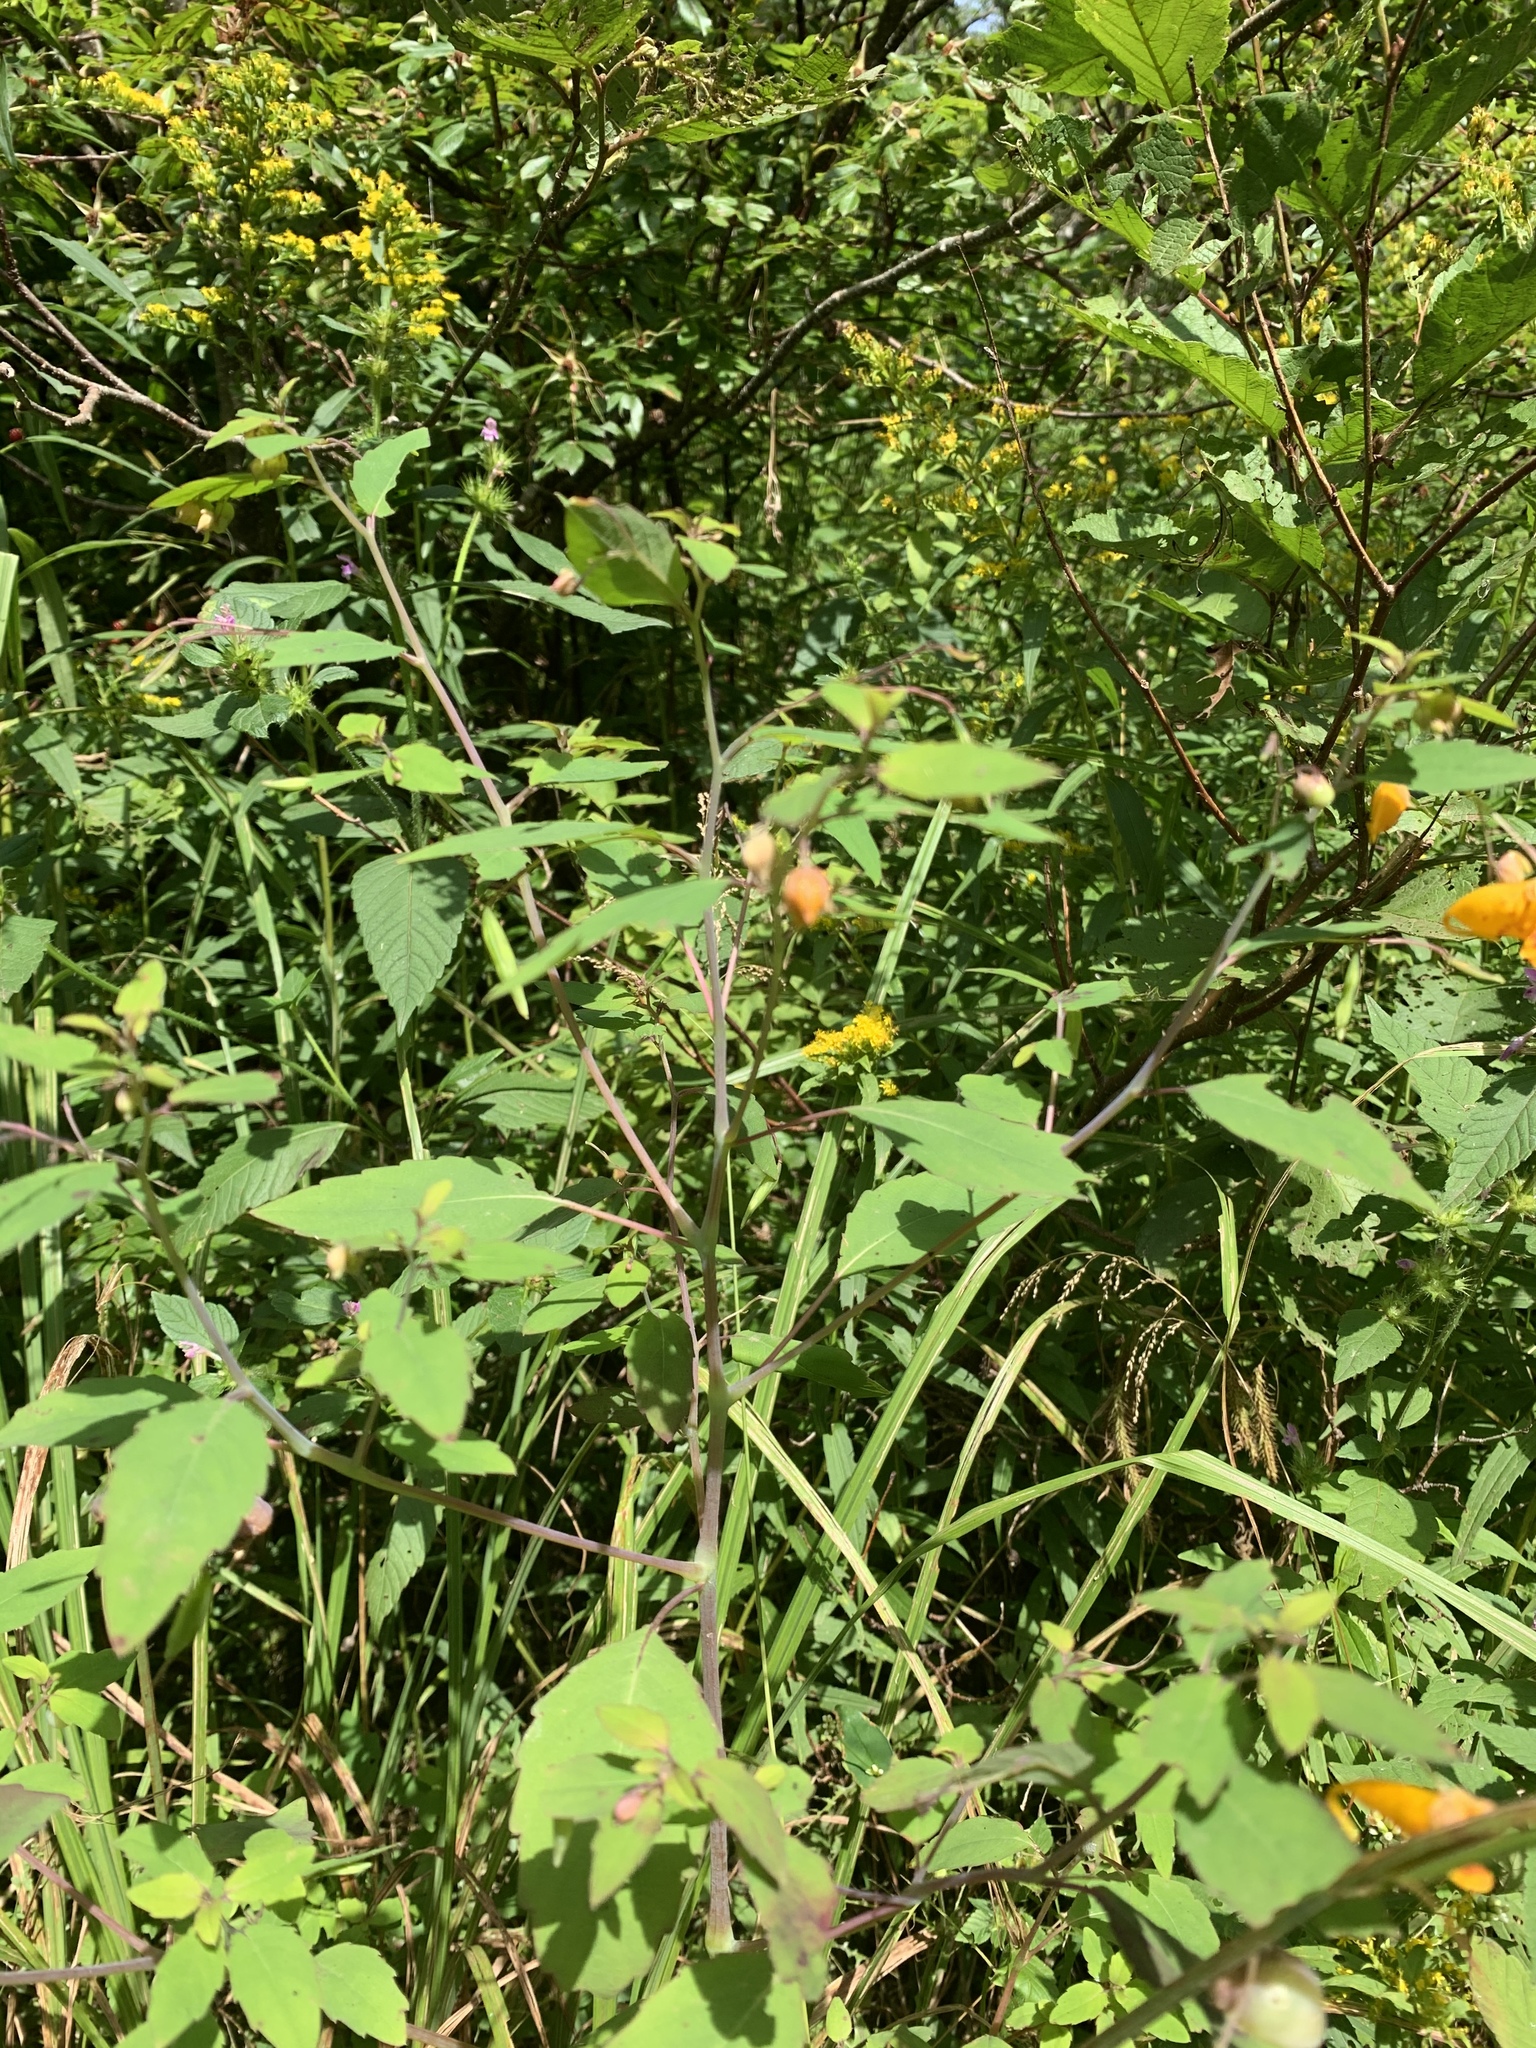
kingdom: Plantae
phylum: Tracheophyta
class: Magnoliopsida
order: Ericales
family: Balsaminaceae
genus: Impatiens
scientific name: Impatiens capensis
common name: Orange balsam
